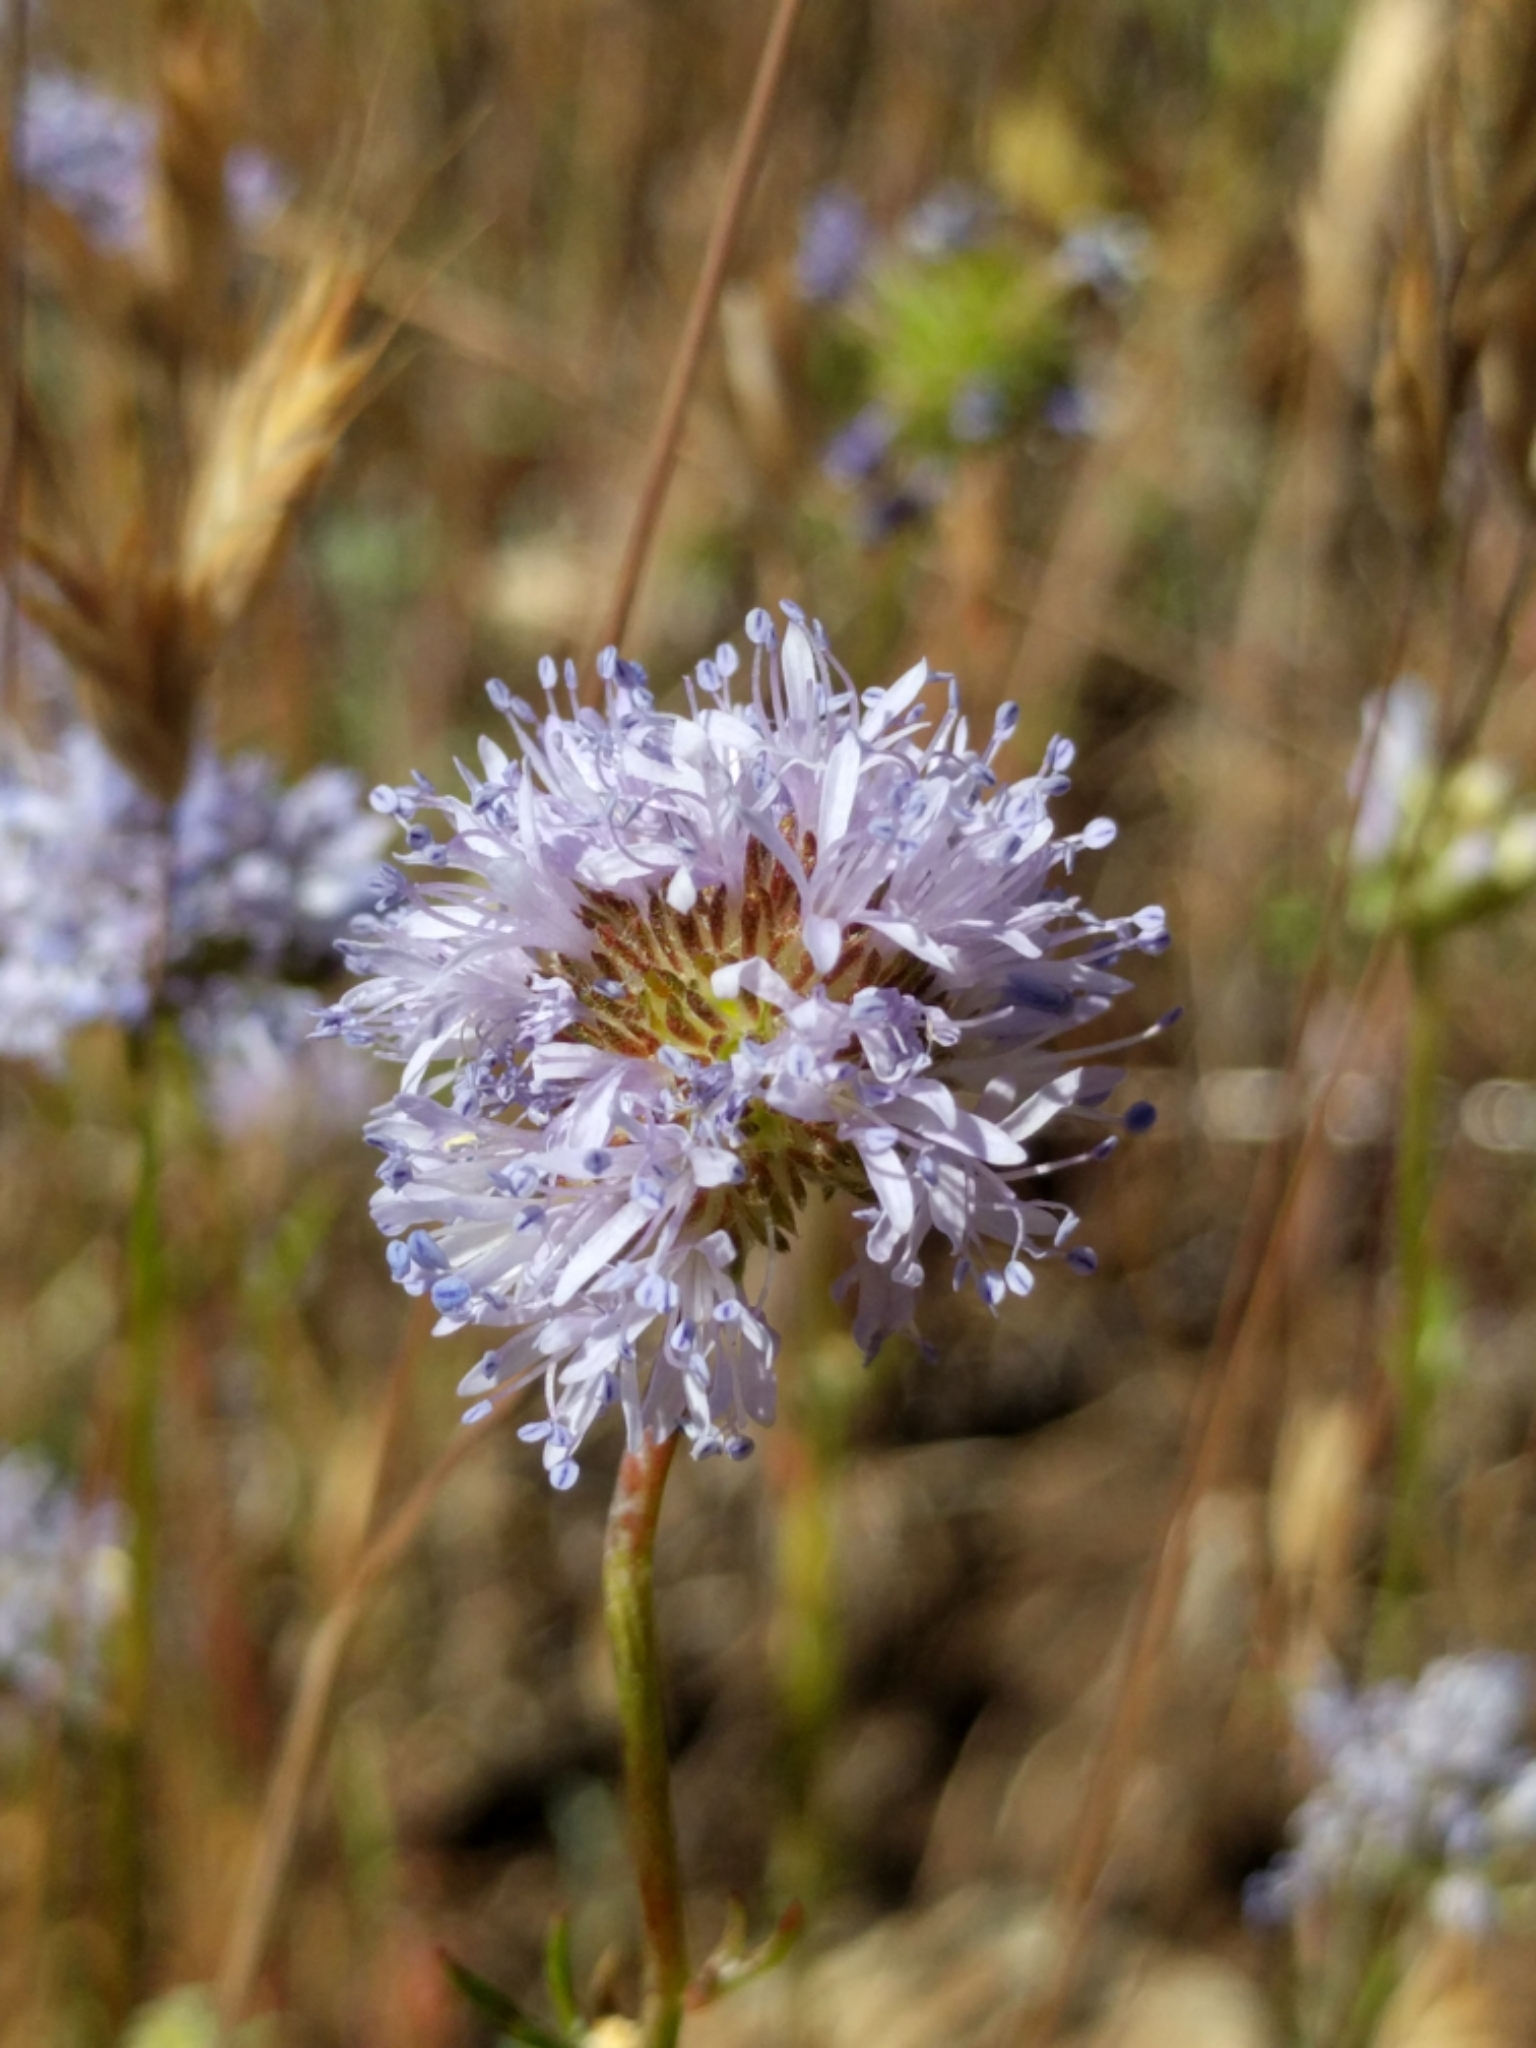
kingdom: Plantae
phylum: Tracheophyta
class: Magnoliopsida
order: Ericales
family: Polemoniaceae
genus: Gilia
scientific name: Gilia capitata
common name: Bluehead gilia
